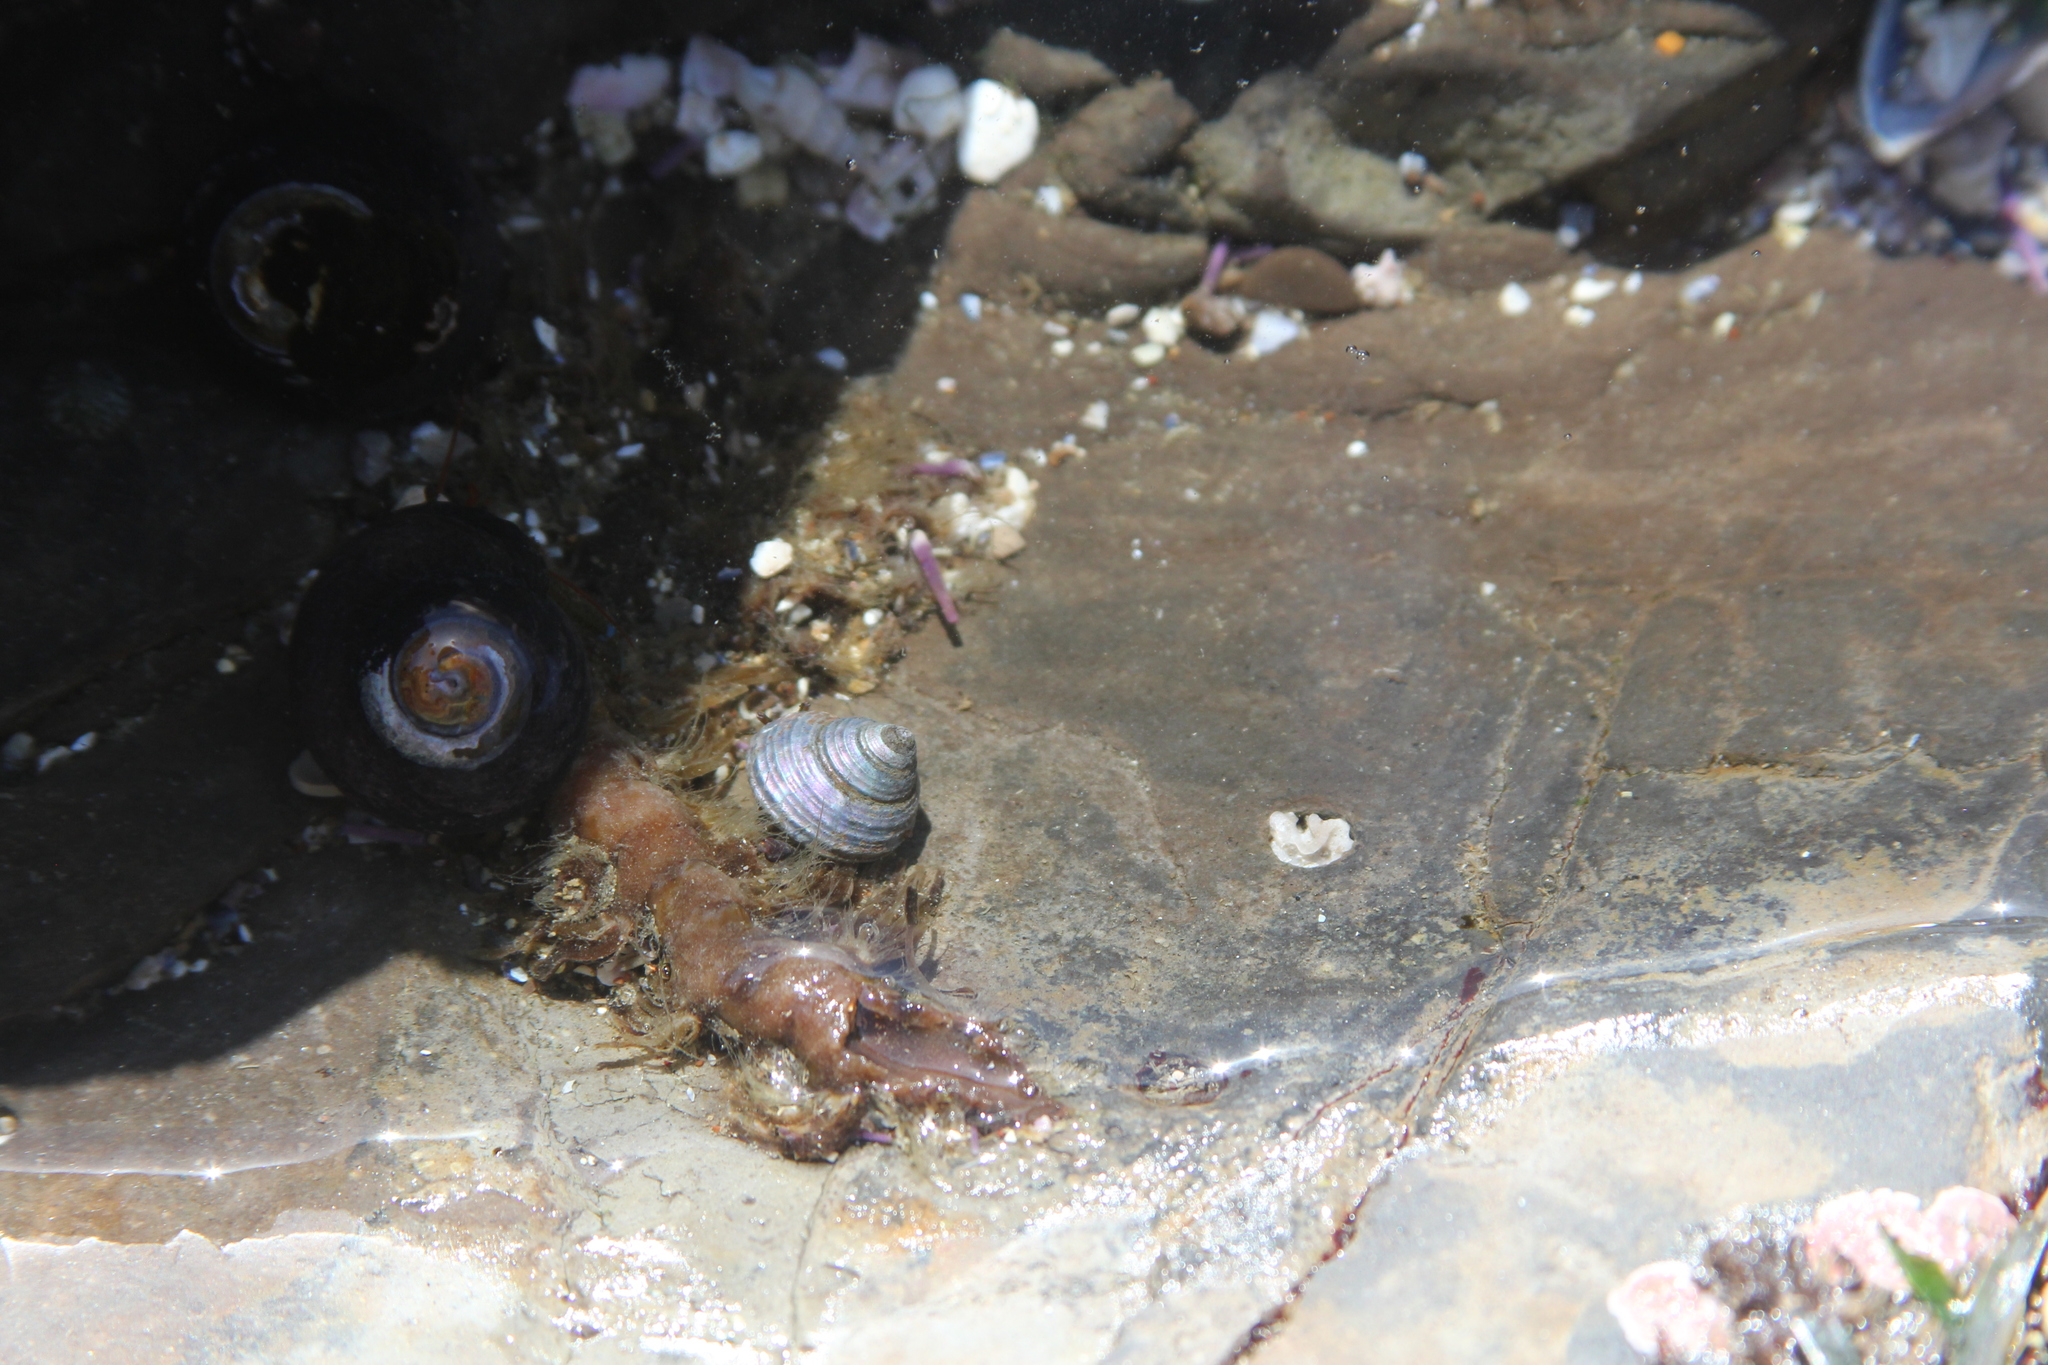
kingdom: Animalia
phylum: Mollusca
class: Gastropoda
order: Trochida
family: Calliostomatidae
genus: Calliostoma
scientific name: Calliostoma ligatum
